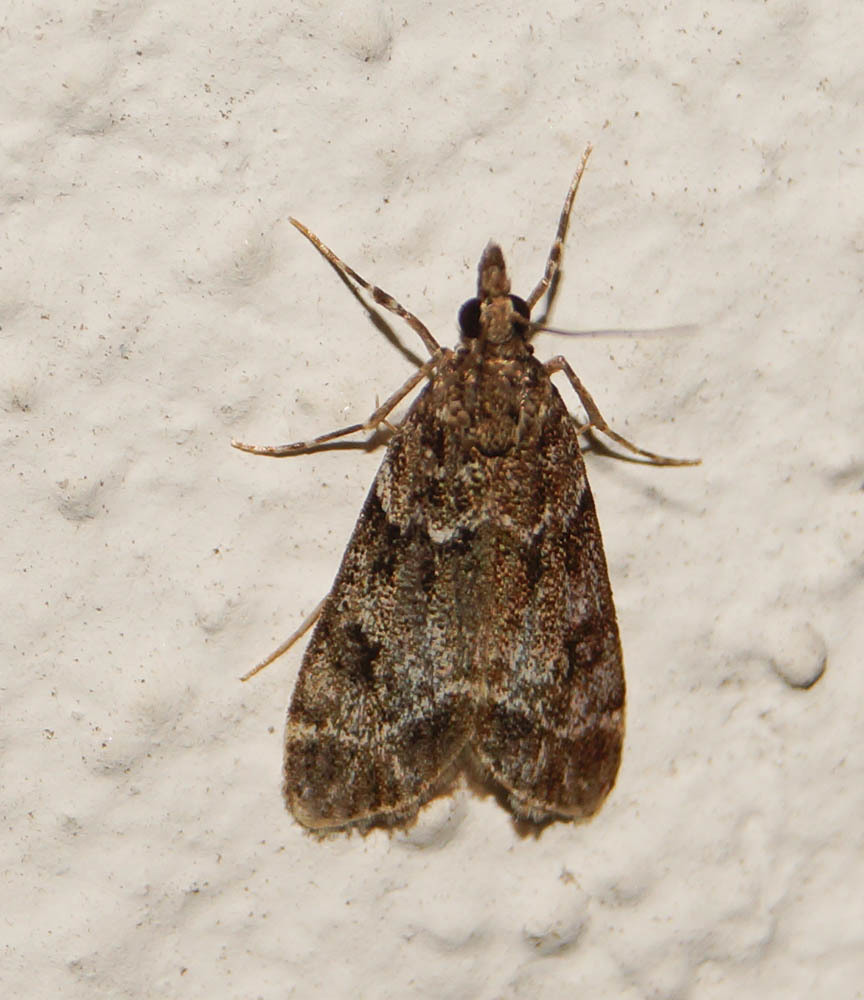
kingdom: Animalia
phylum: Arthropoda
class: Insecta
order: Lepidoptera
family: Crambidae
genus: Eudonia
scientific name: Eudonia mercurella
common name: Small grey
